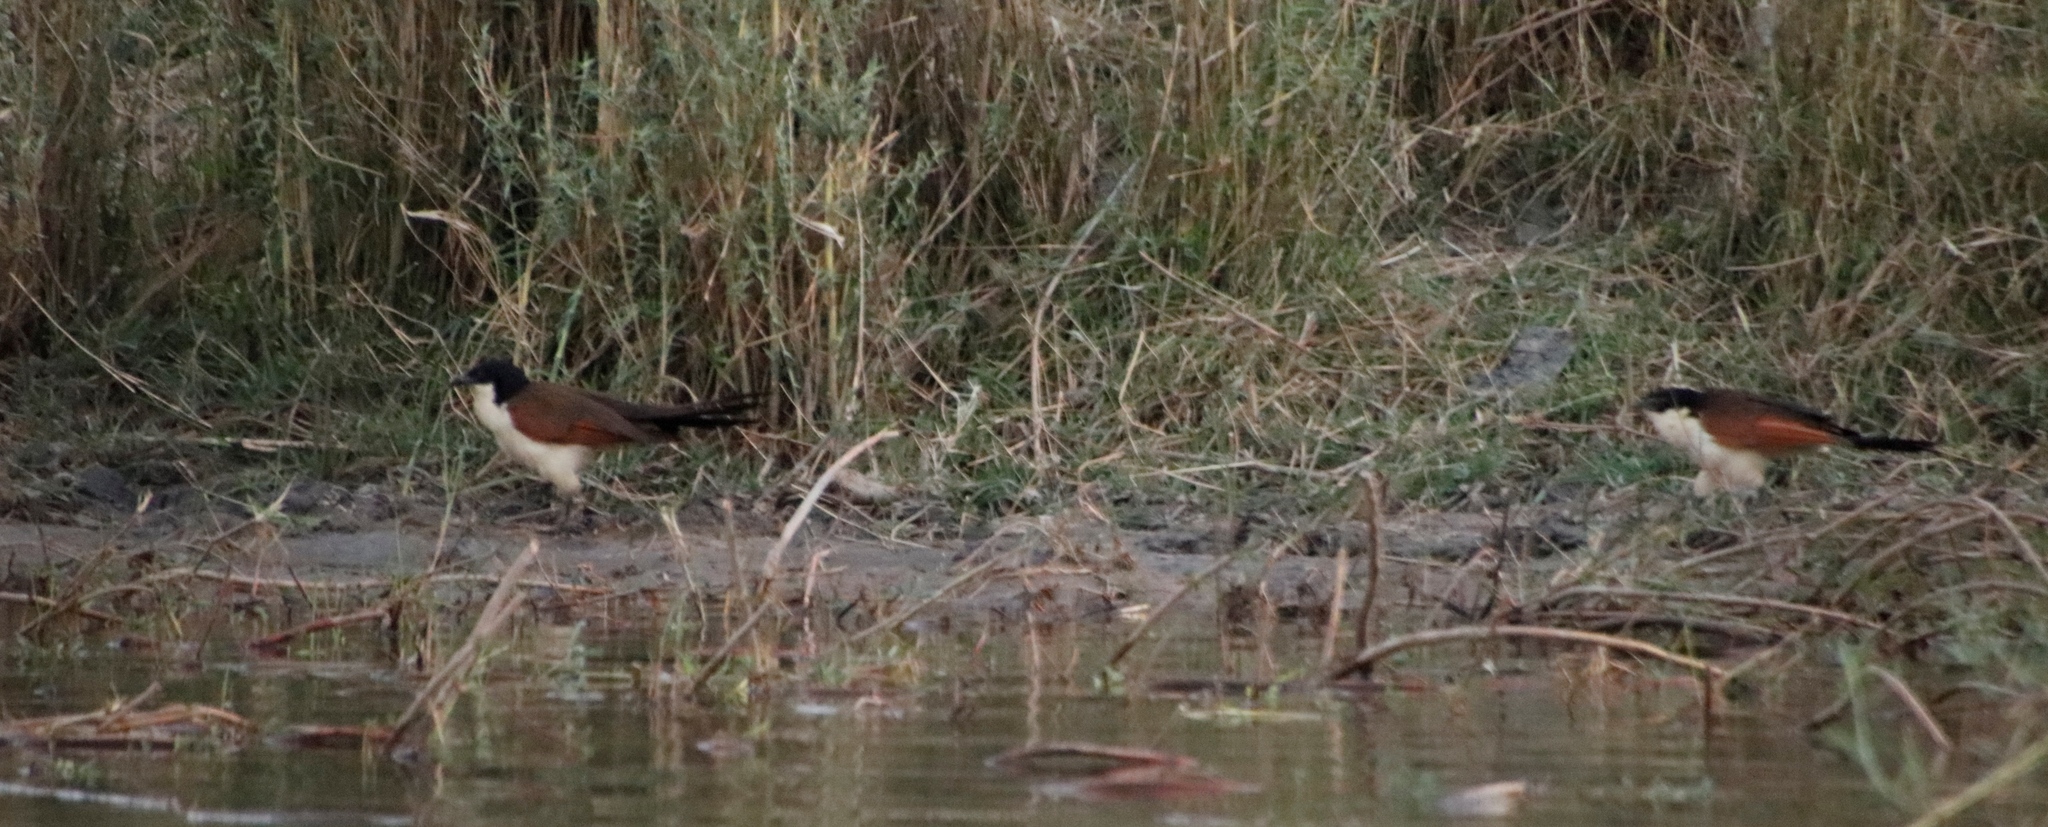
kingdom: Animalia
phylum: Chordata
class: Aves
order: Cuculiformes
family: Cuculidae
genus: Centropus
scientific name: Centropus cupreicaudus
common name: Coppery-tailed coucal
